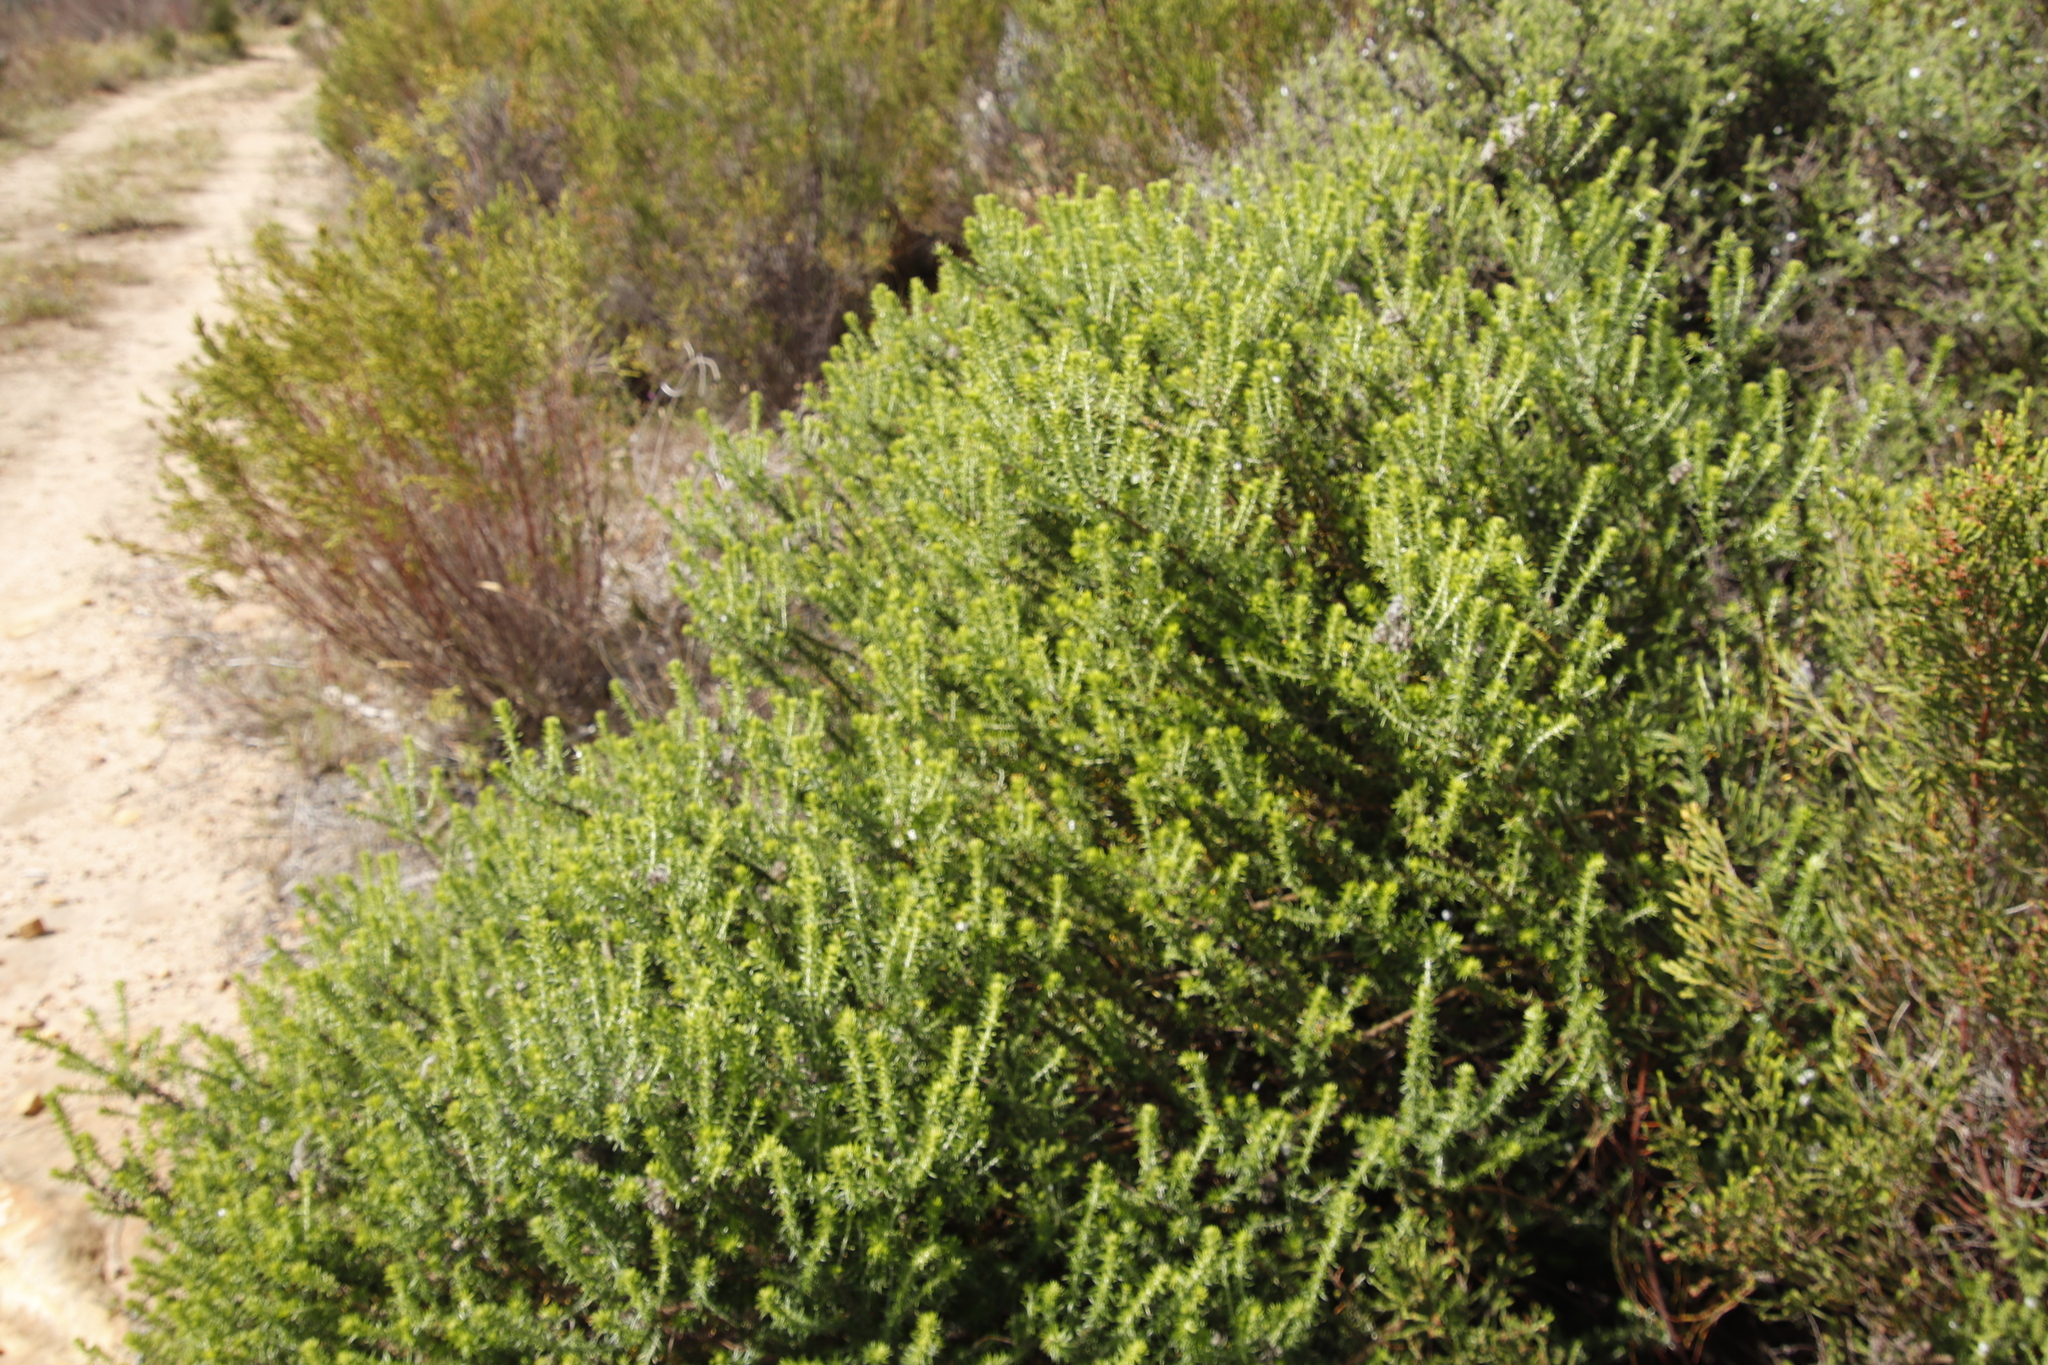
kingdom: Plantae
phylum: Tracheophyta
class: Magnoliopsida
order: Asterales
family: Asteraceae
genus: Metalasia
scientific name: Metalasia densa
